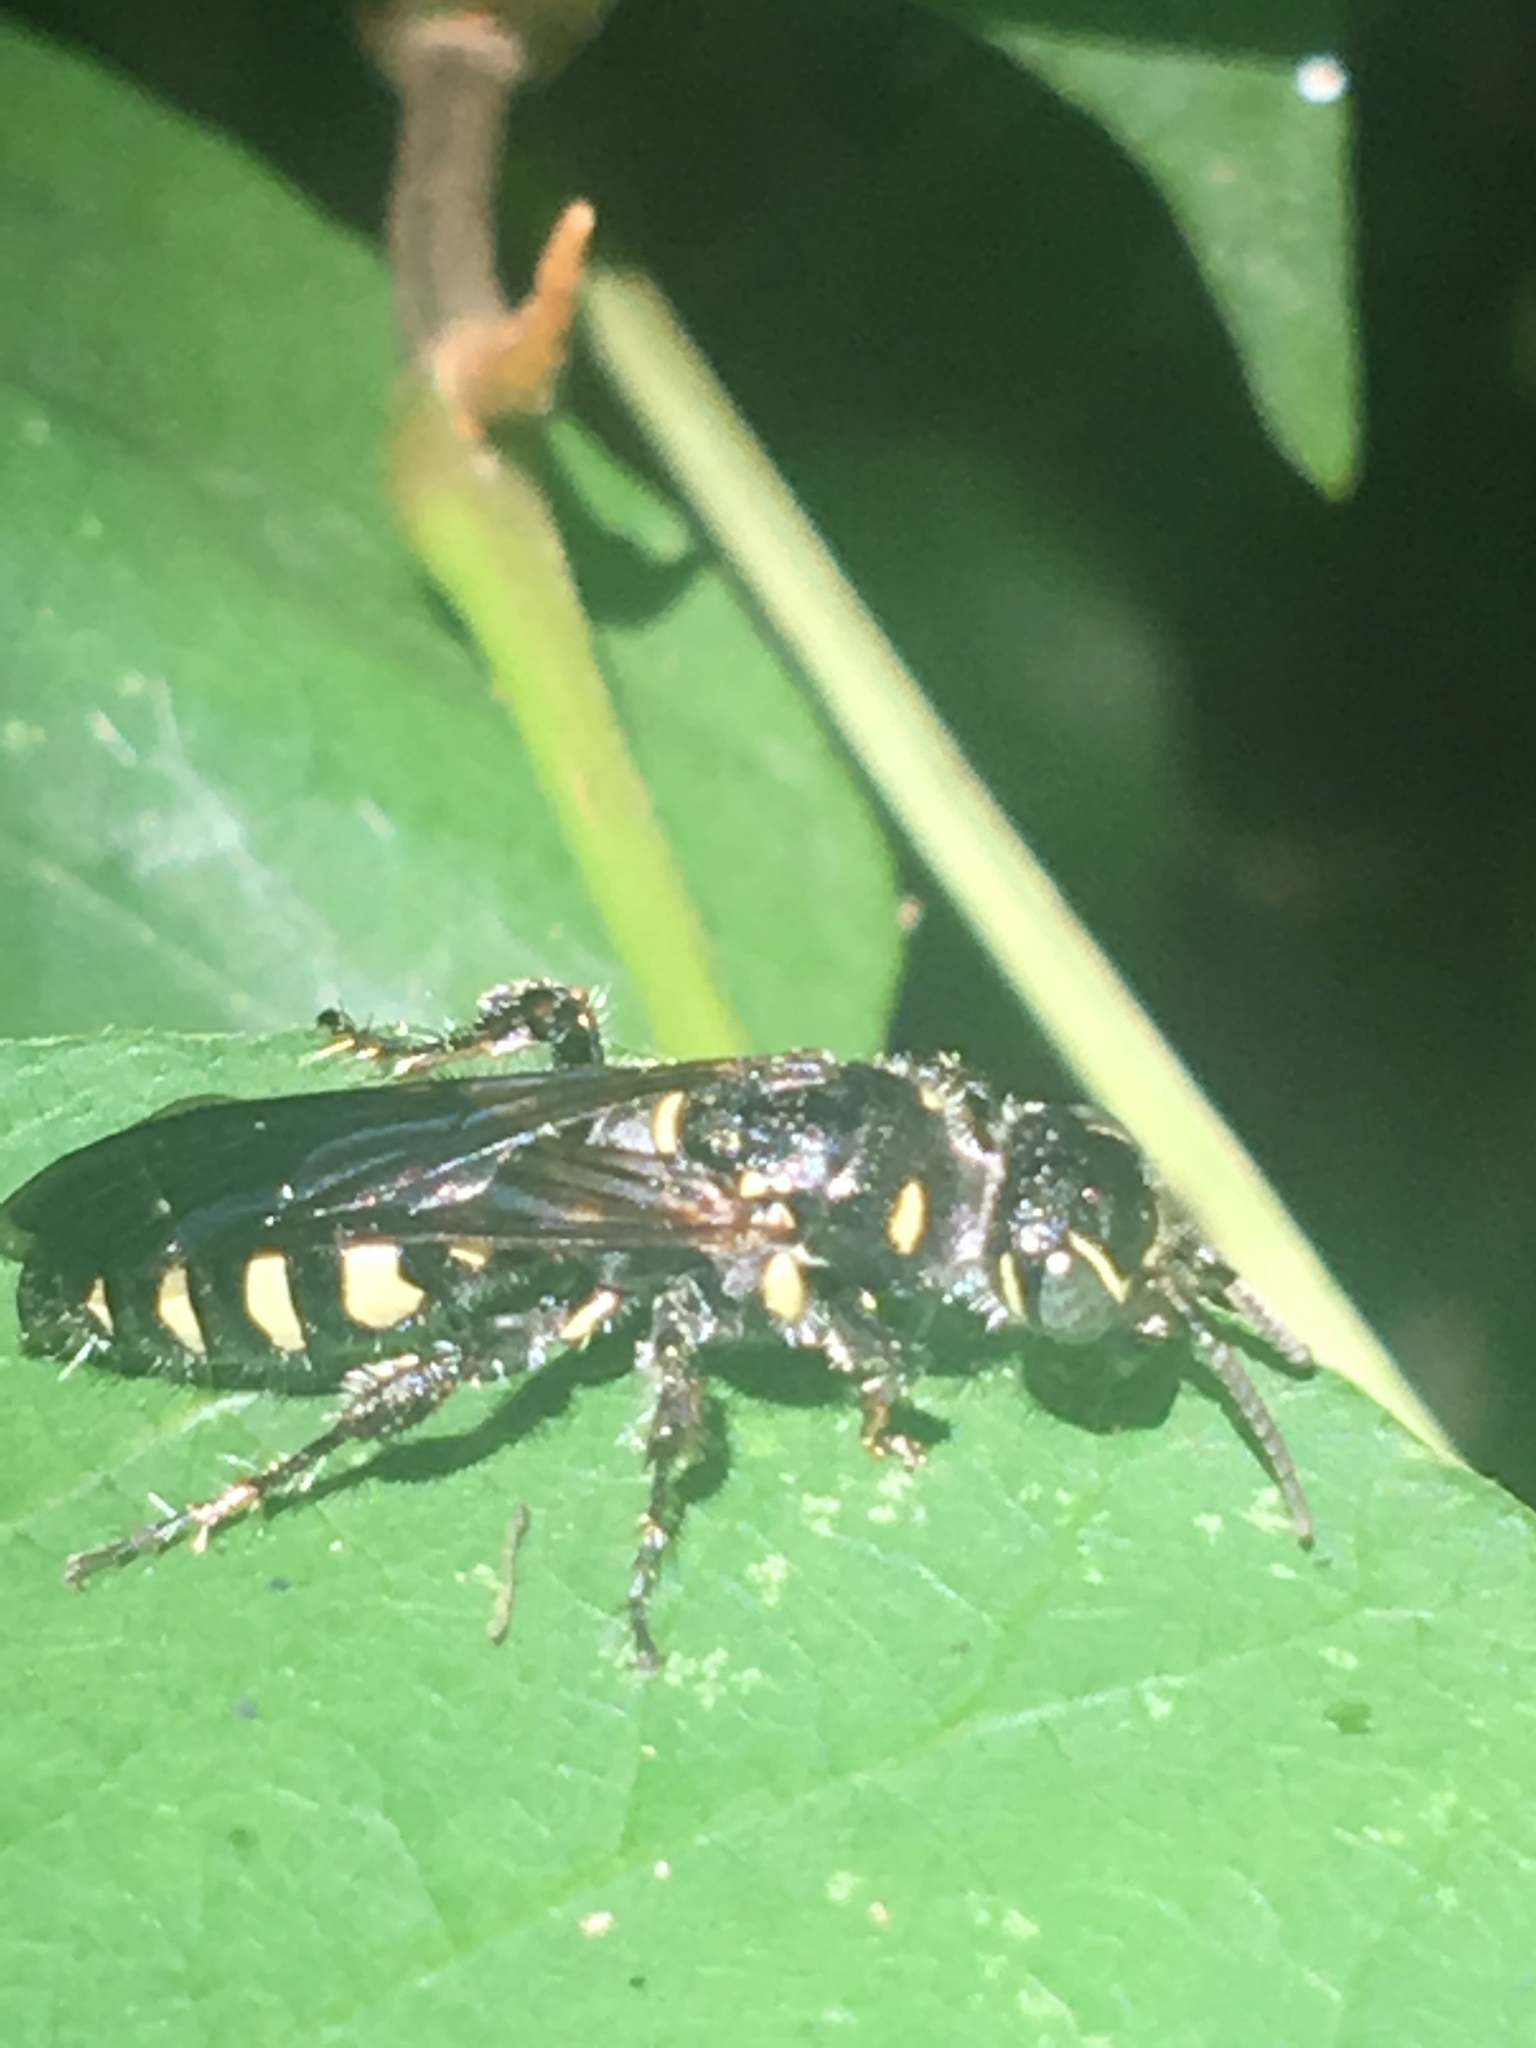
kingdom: Animalia
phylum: Arthropoda
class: Insecta
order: Hymenoptera
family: Tiphiidae
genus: Myzinum
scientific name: Myzinum
